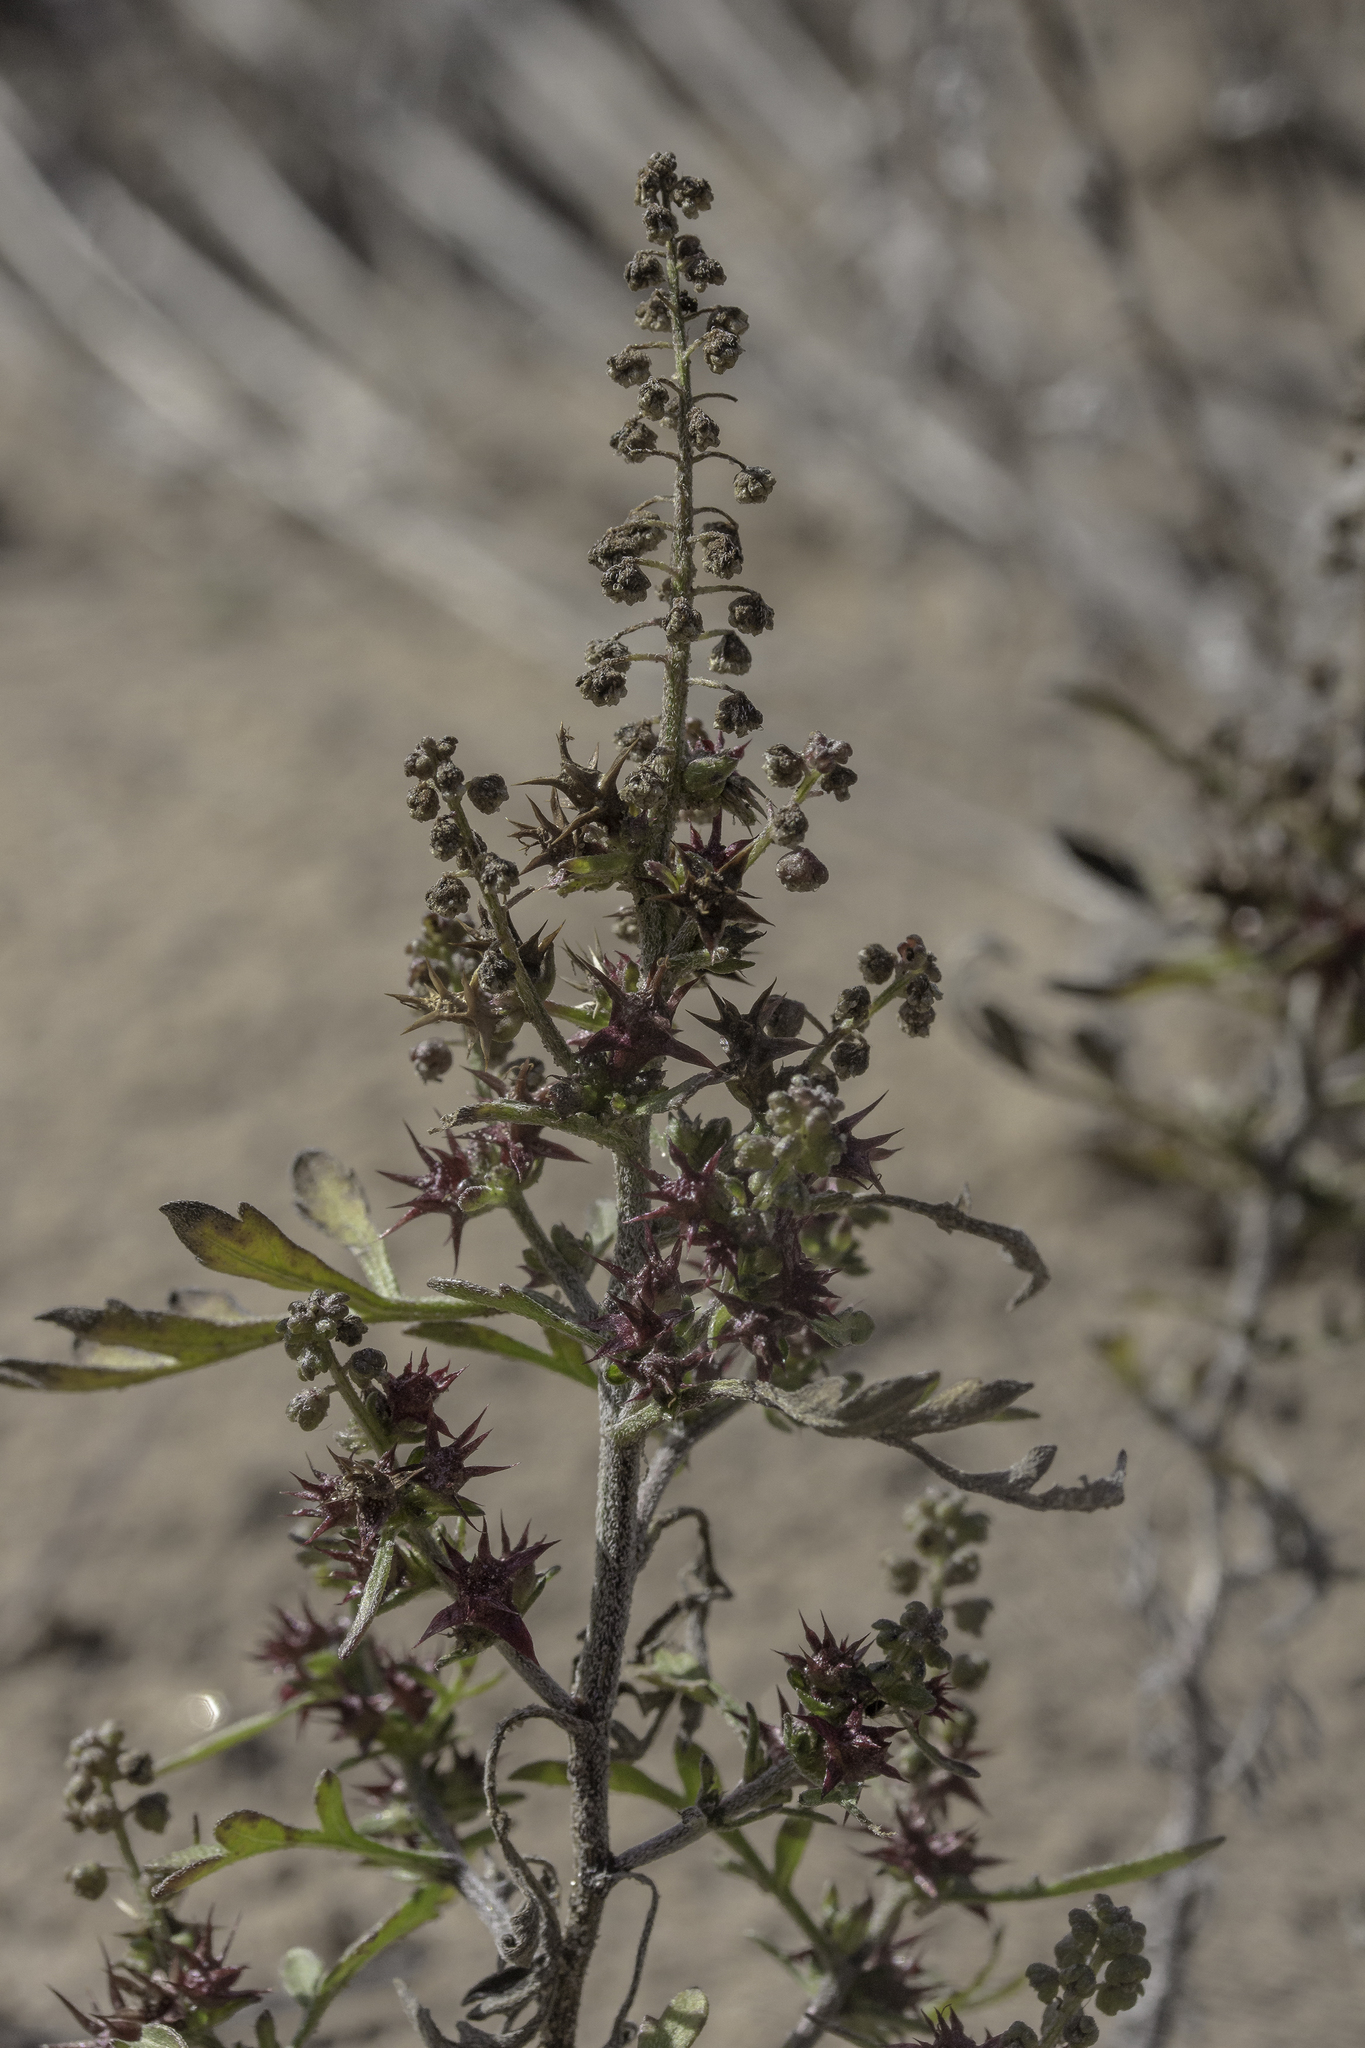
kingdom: Plantae
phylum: Tracheophyta
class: Magnoliopsida
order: Asterales
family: Asteraceae
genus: Ambrosia
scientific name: Ambrosia acanthicarpa
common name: Hooker's bur ragweed
